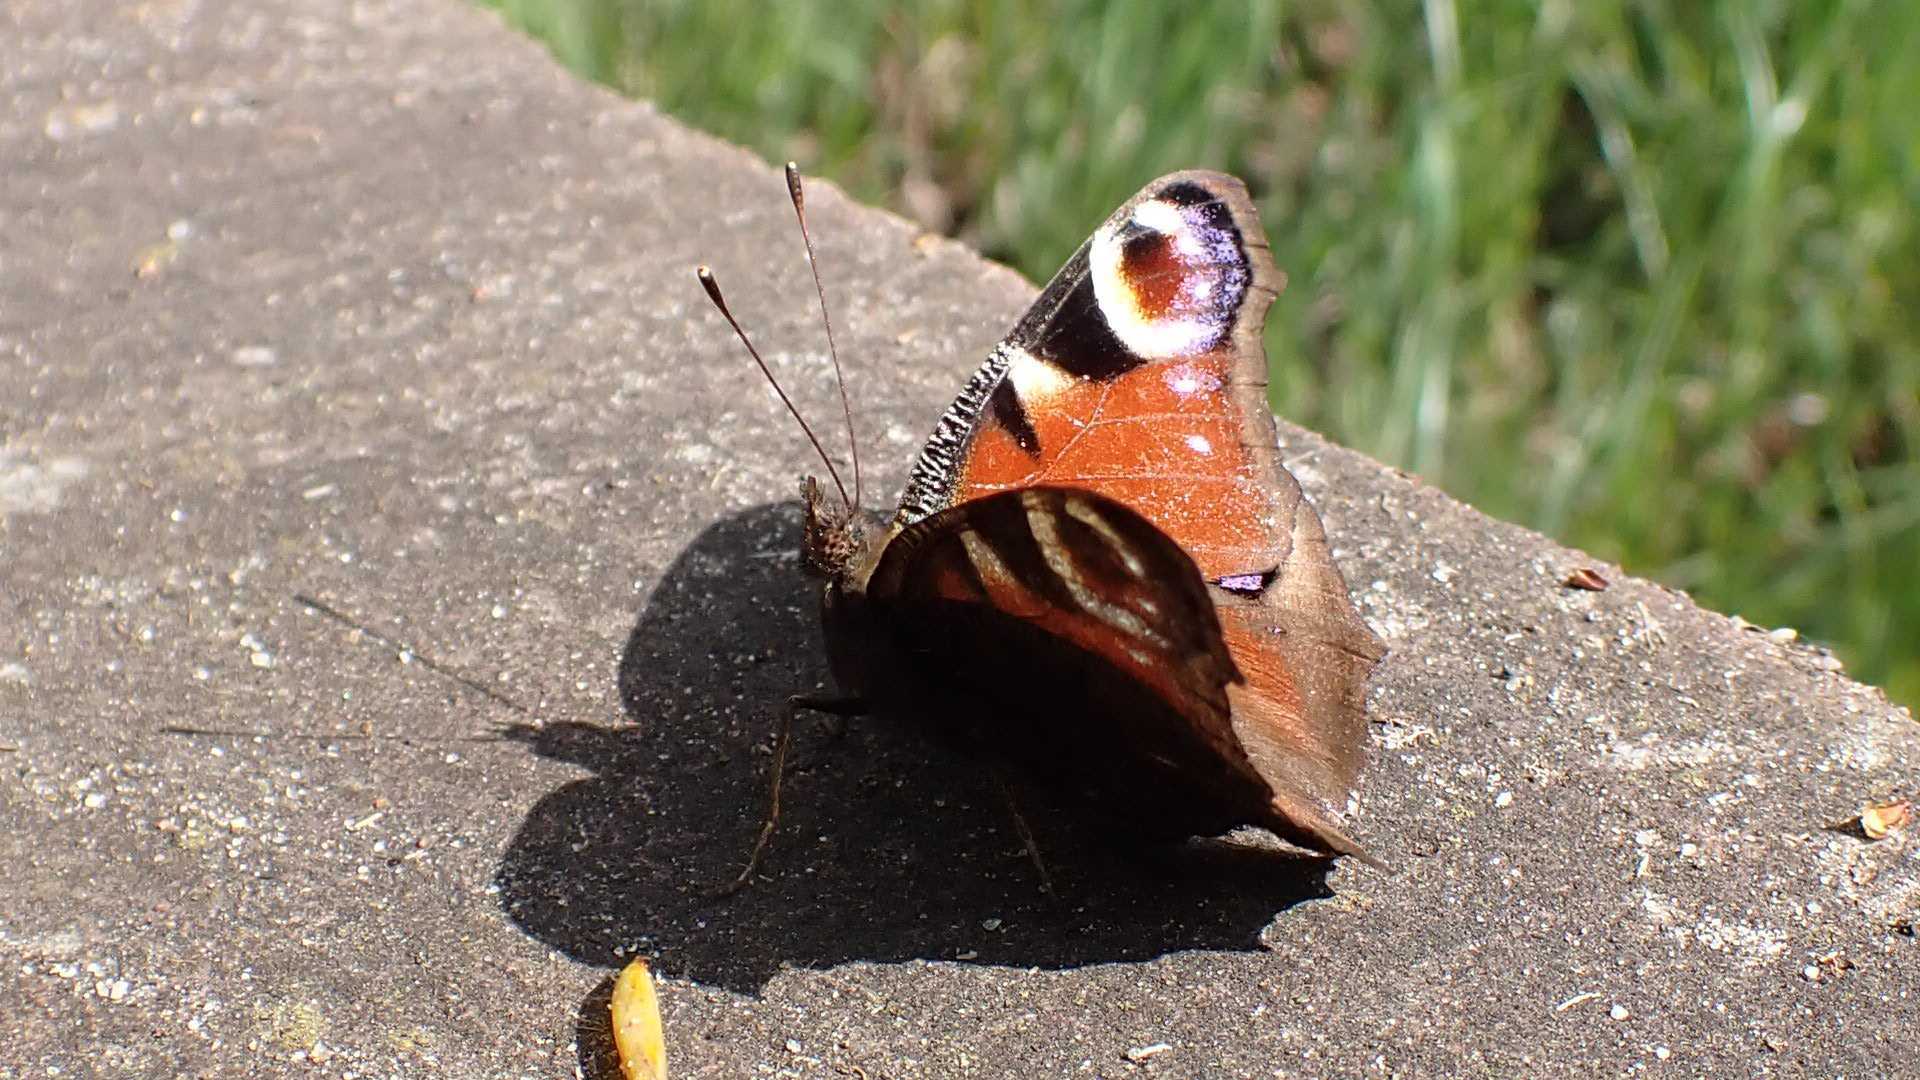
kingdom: Animalia
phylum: Arthropoda
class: Insecta
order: Lepidoptera
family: Nymphalidae
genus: Aglais
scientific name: Aglais io
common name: Peacock
